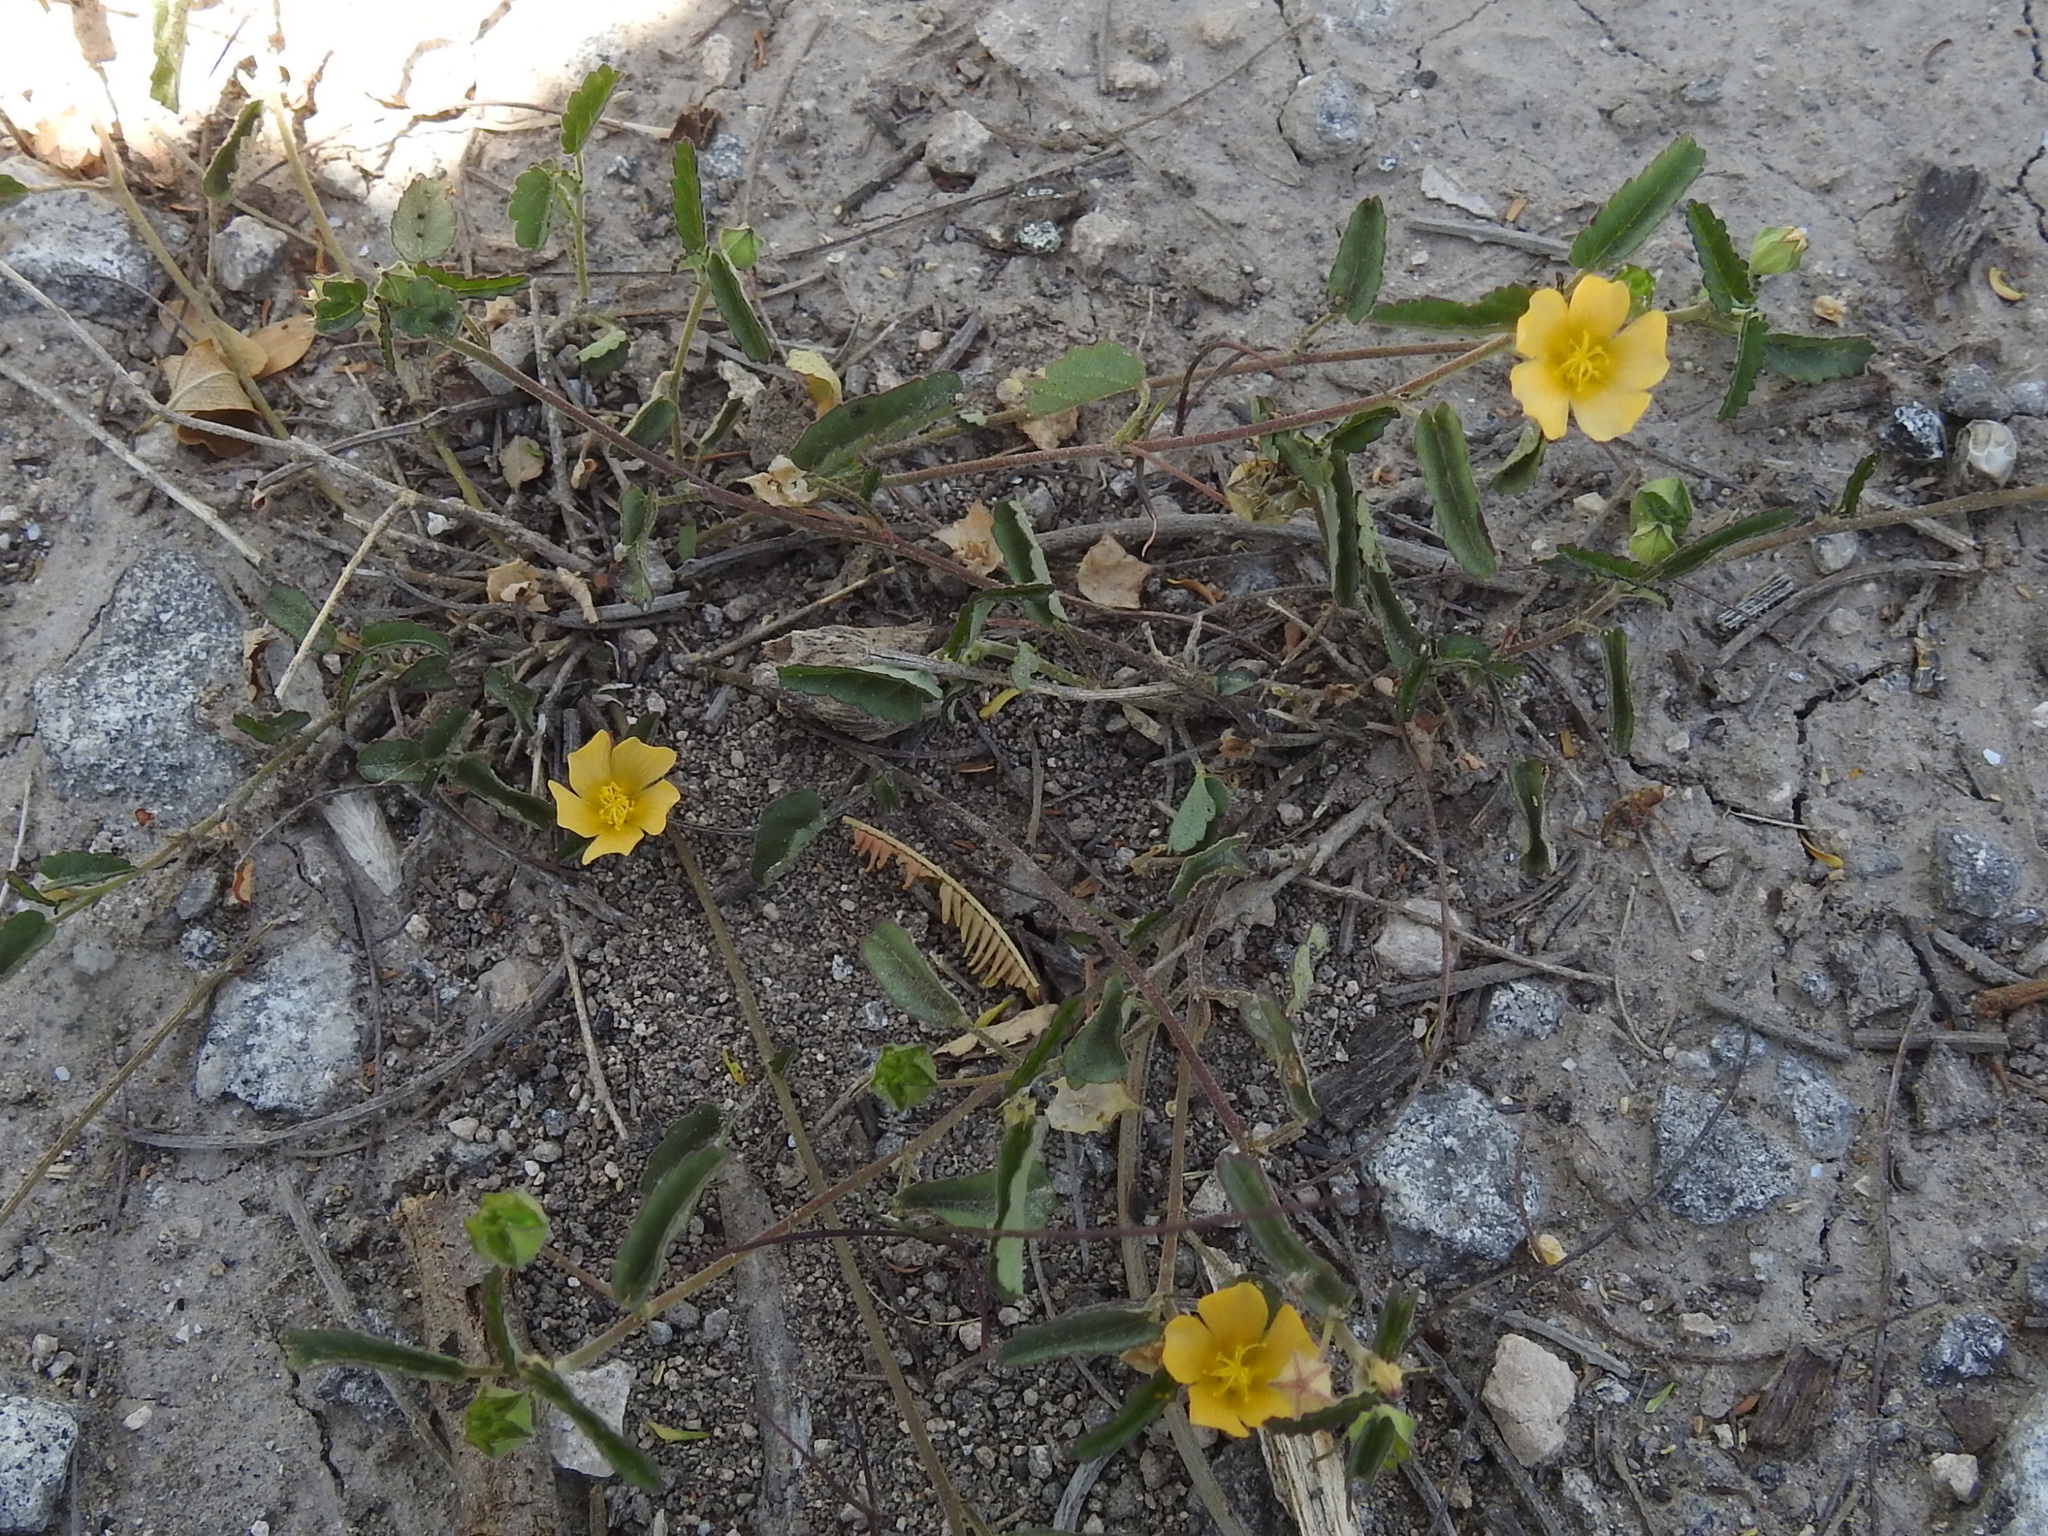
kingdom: Plantae
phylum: Tracheophyta
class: Magnoliopsida
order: Malvales
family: Malvaceae
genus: Sida
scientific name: Sida abutilifolia
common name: Spreading fanpetals
